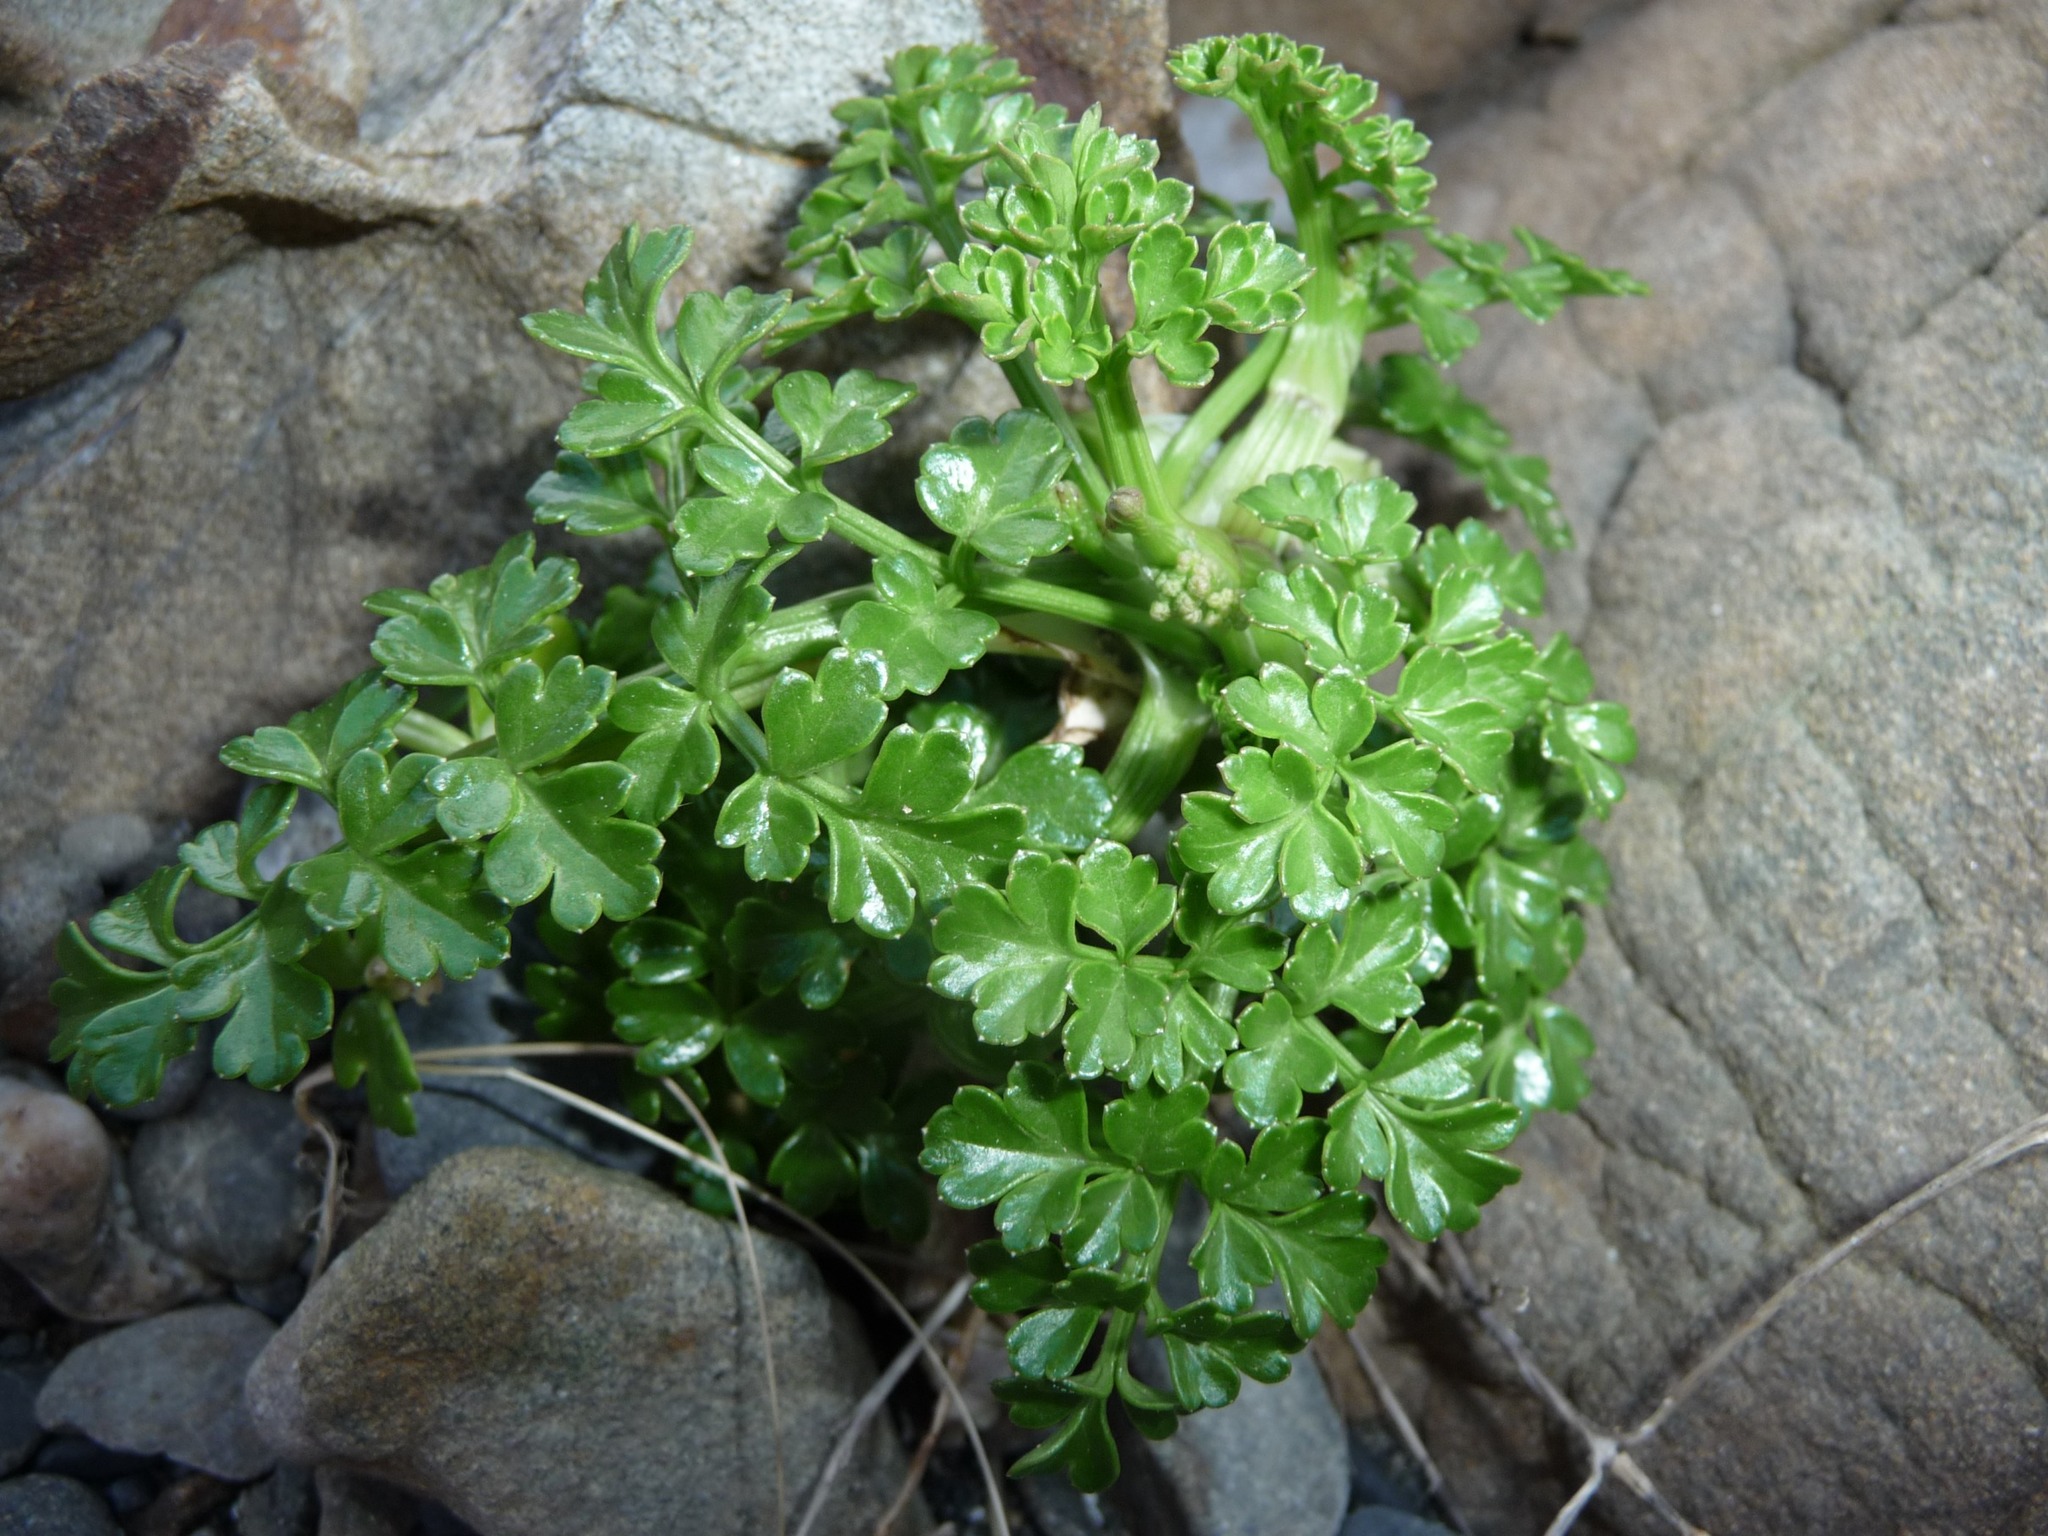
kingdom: Plantae
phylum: Tracheophyta
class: Magnoliopsida
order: Apiales
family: Apiaceae
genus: Angelica
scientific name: Angelica pachycarpa
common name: Portuguese angelica
